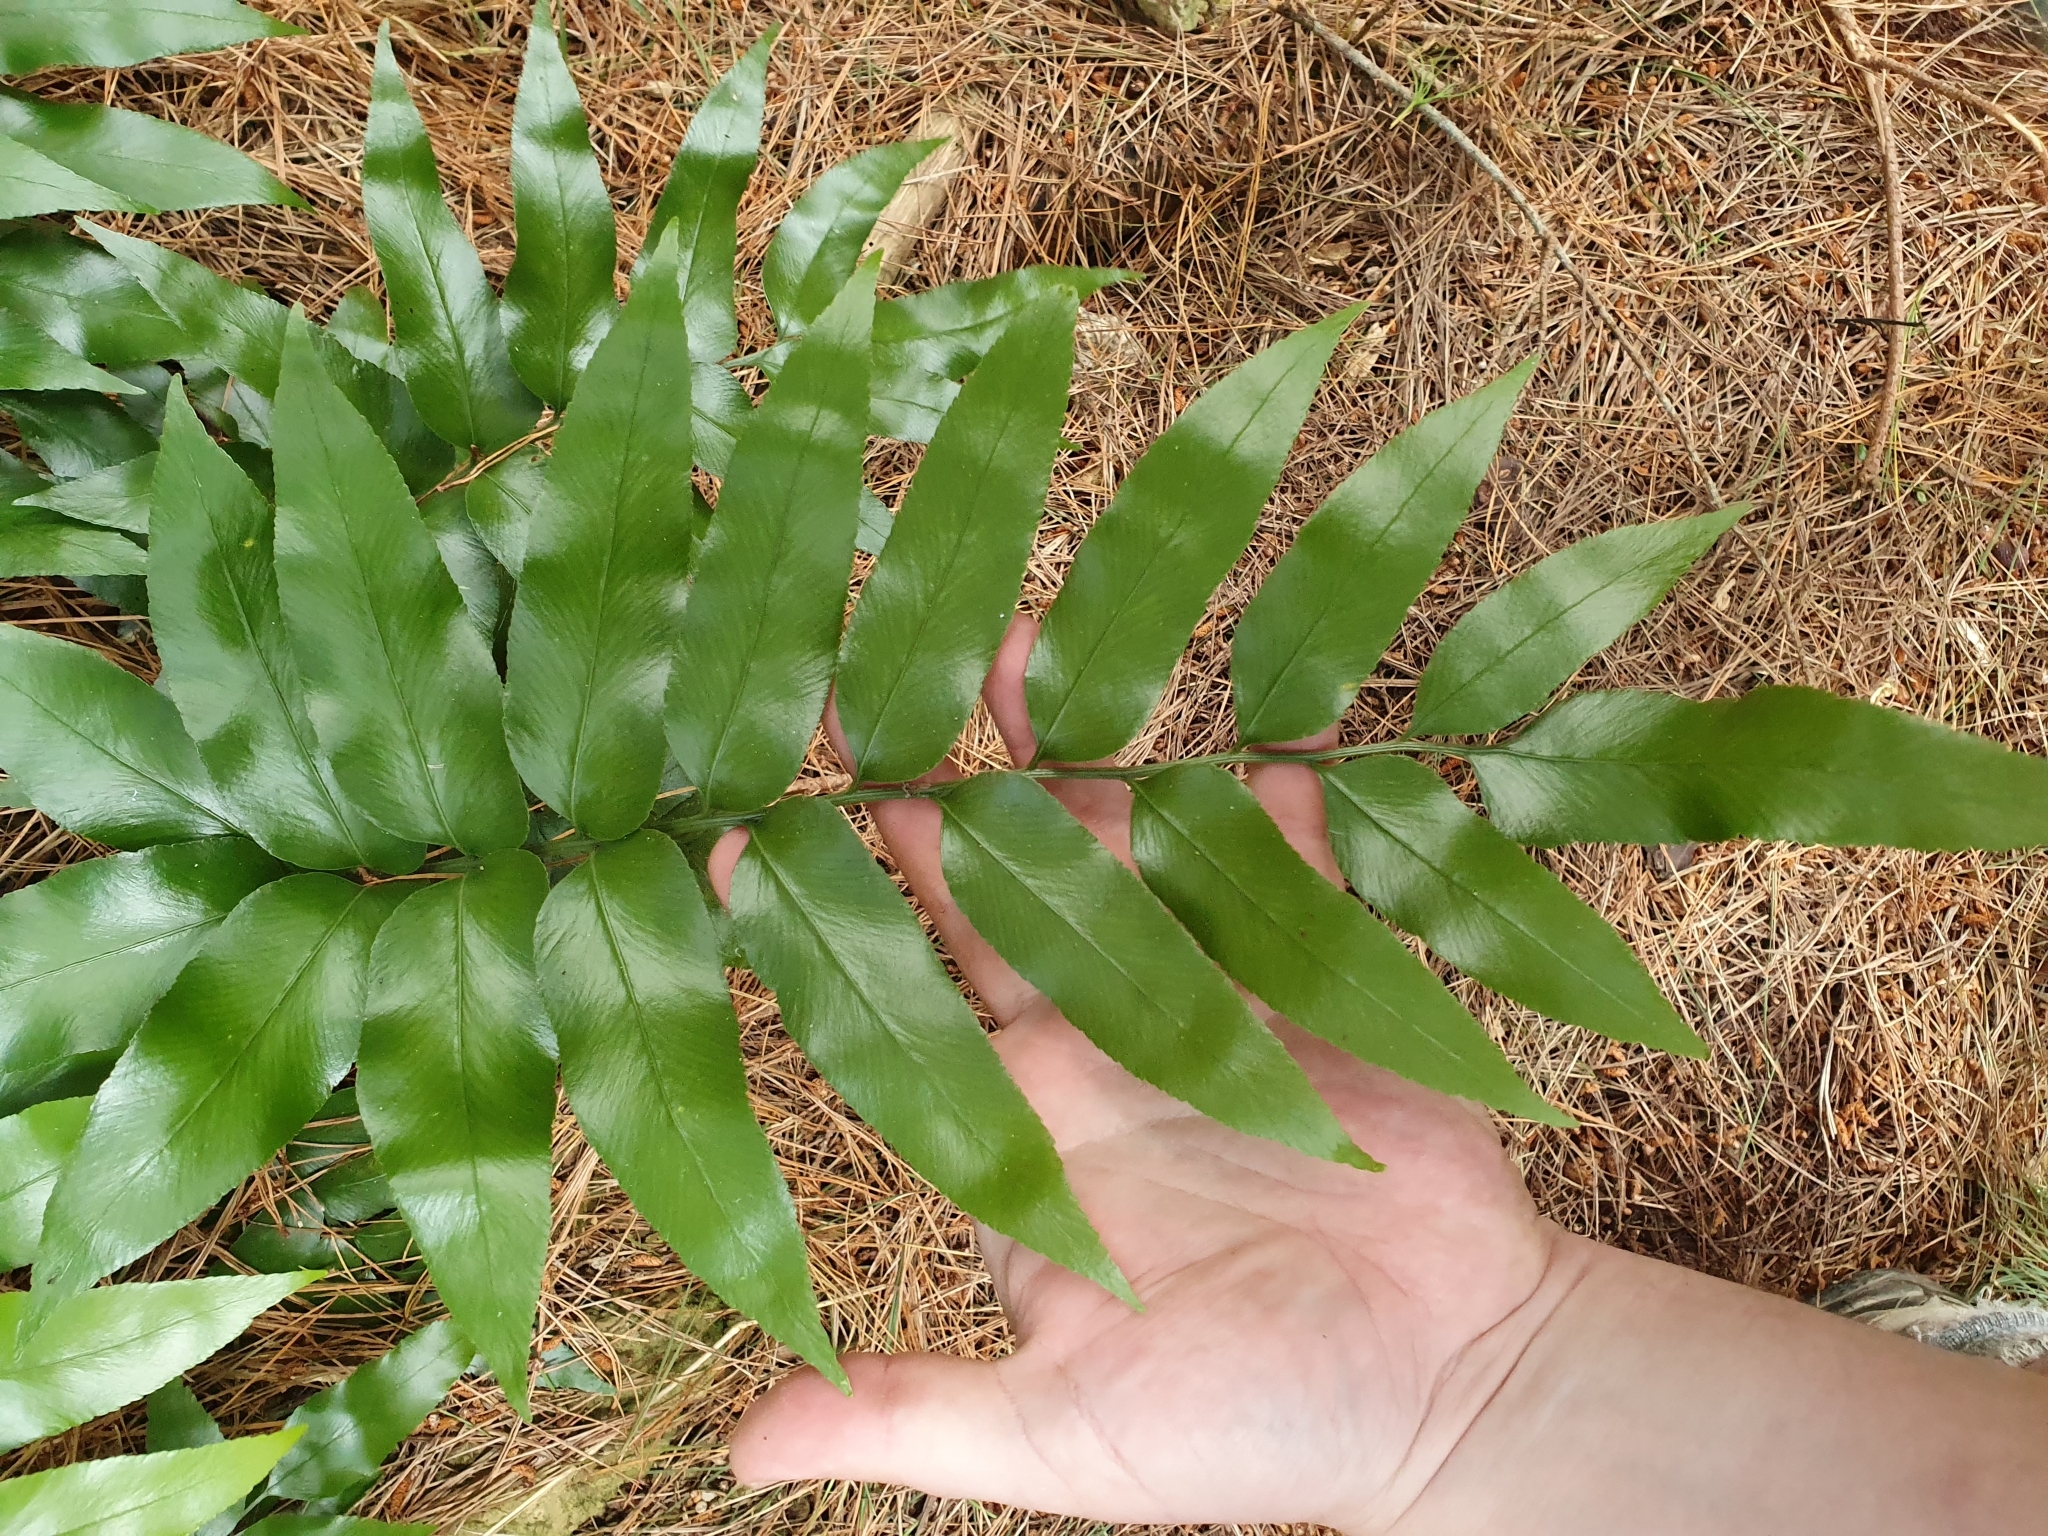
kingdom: Plantae
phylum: Tracheophyta
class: Polypodiopsida
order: Polypodiales
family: Aspleniaceae
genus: Asplenium
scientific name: Asplenium oblongifolium
